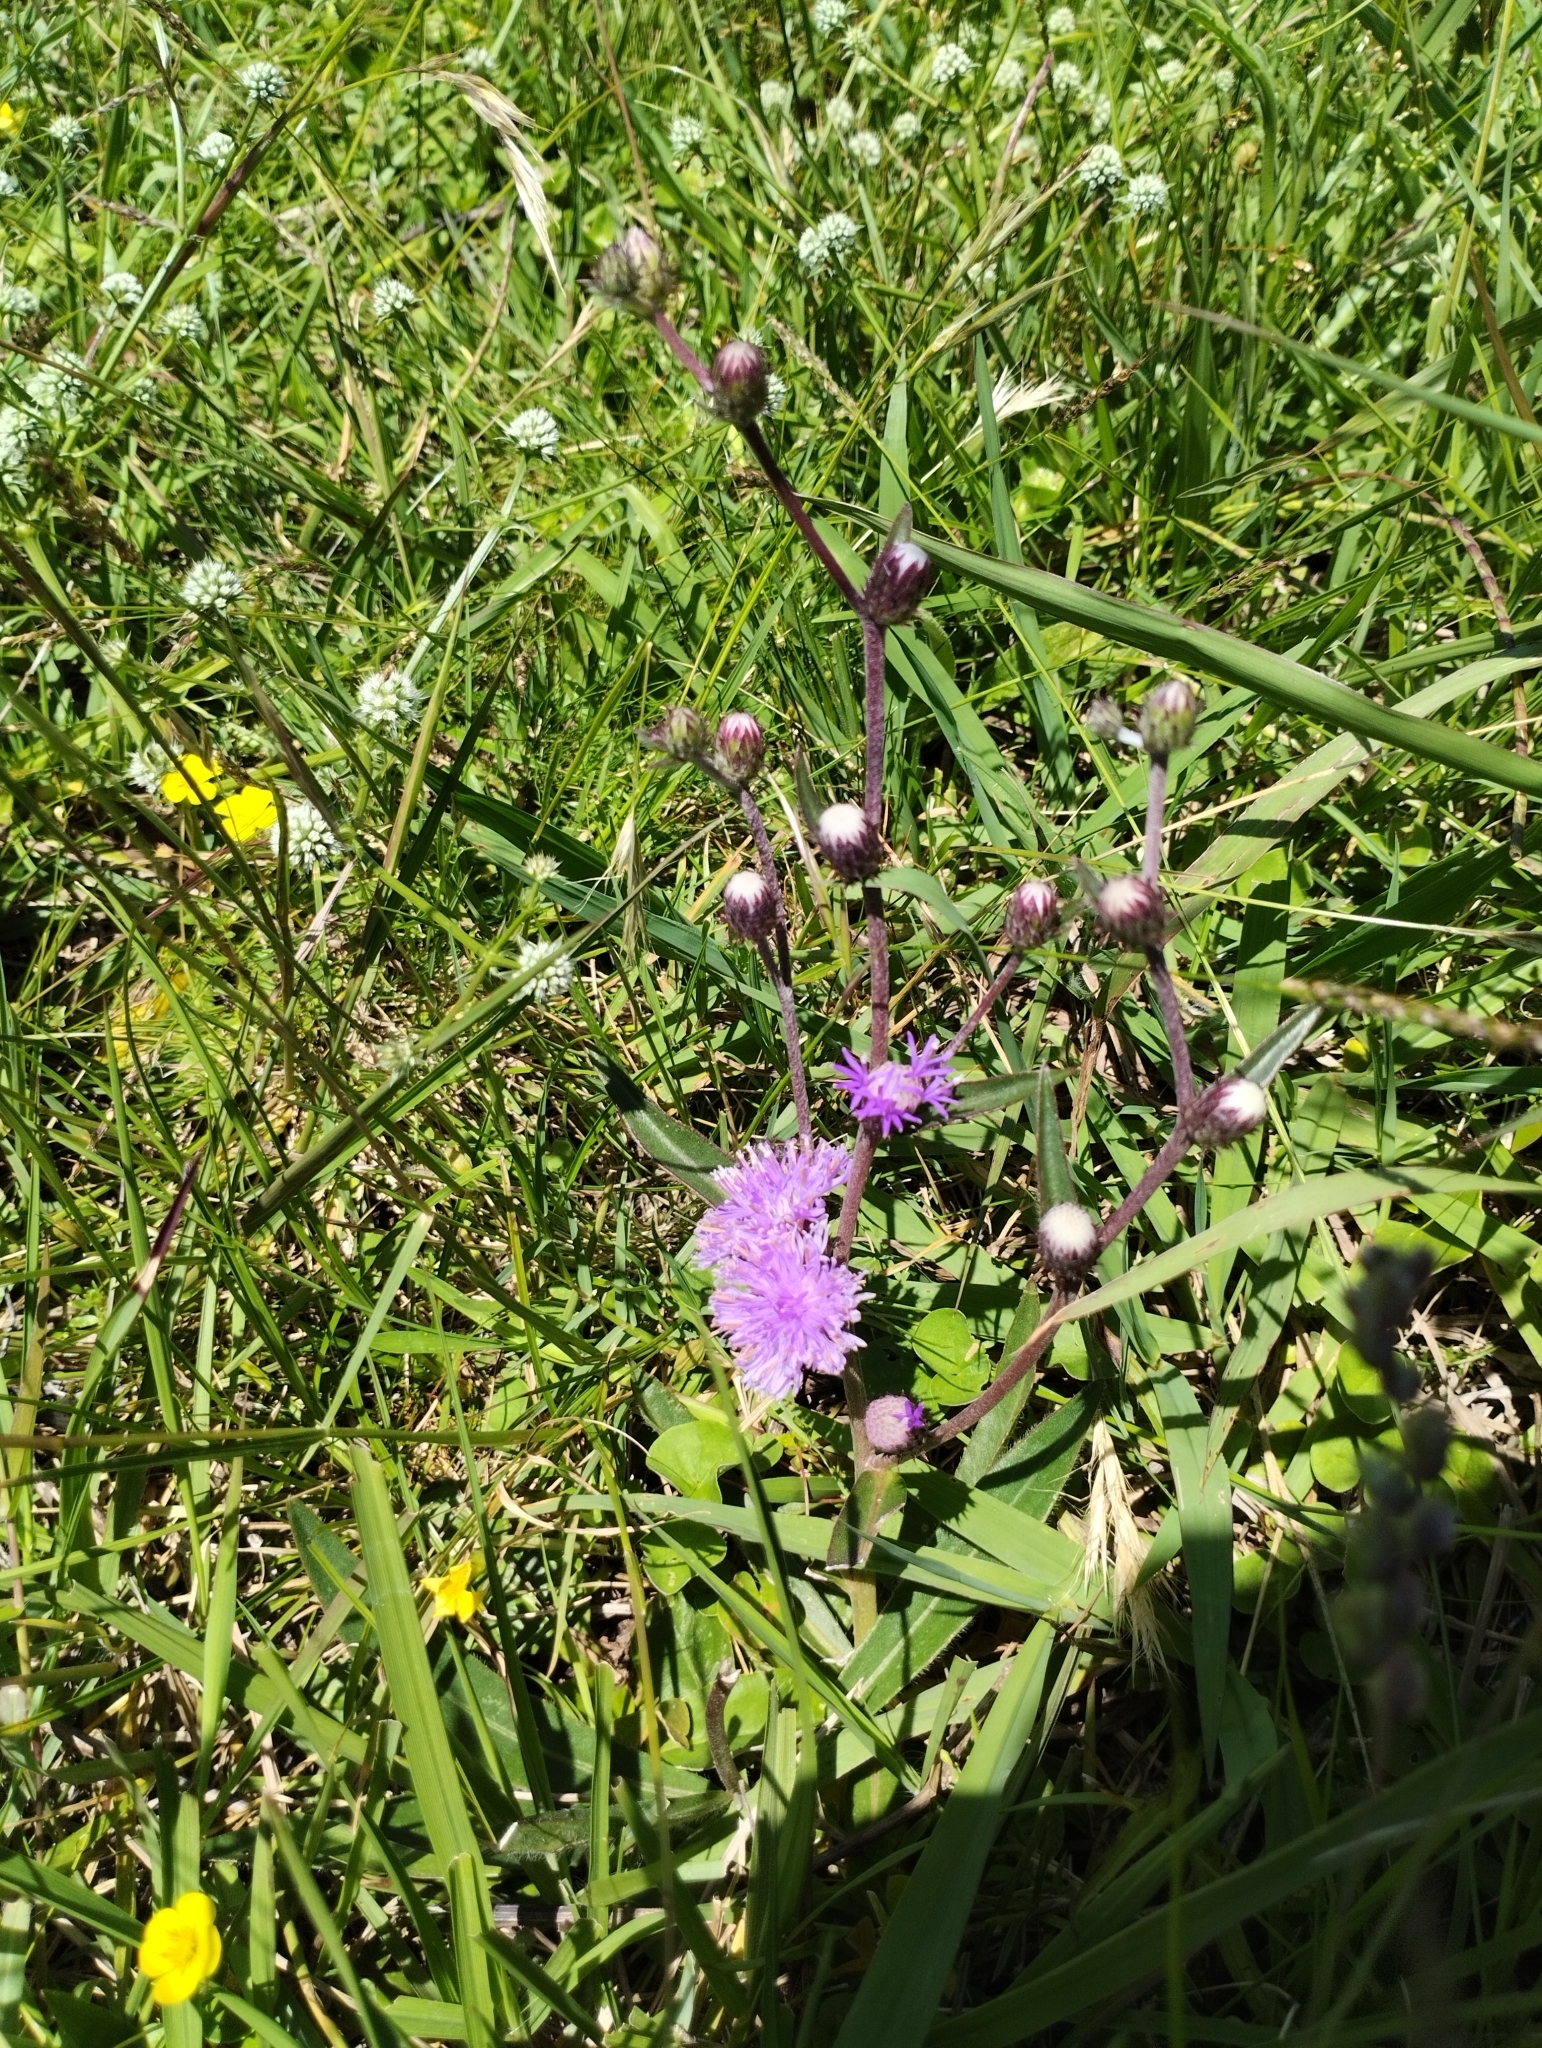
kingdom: Plantae
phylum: Tracheophyta
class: Magnoliopsida
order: Asterales
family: Asteraceae
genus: Chrysolaena
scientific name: Chrysolaena flexuosa
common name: Zig-zag vernonia
